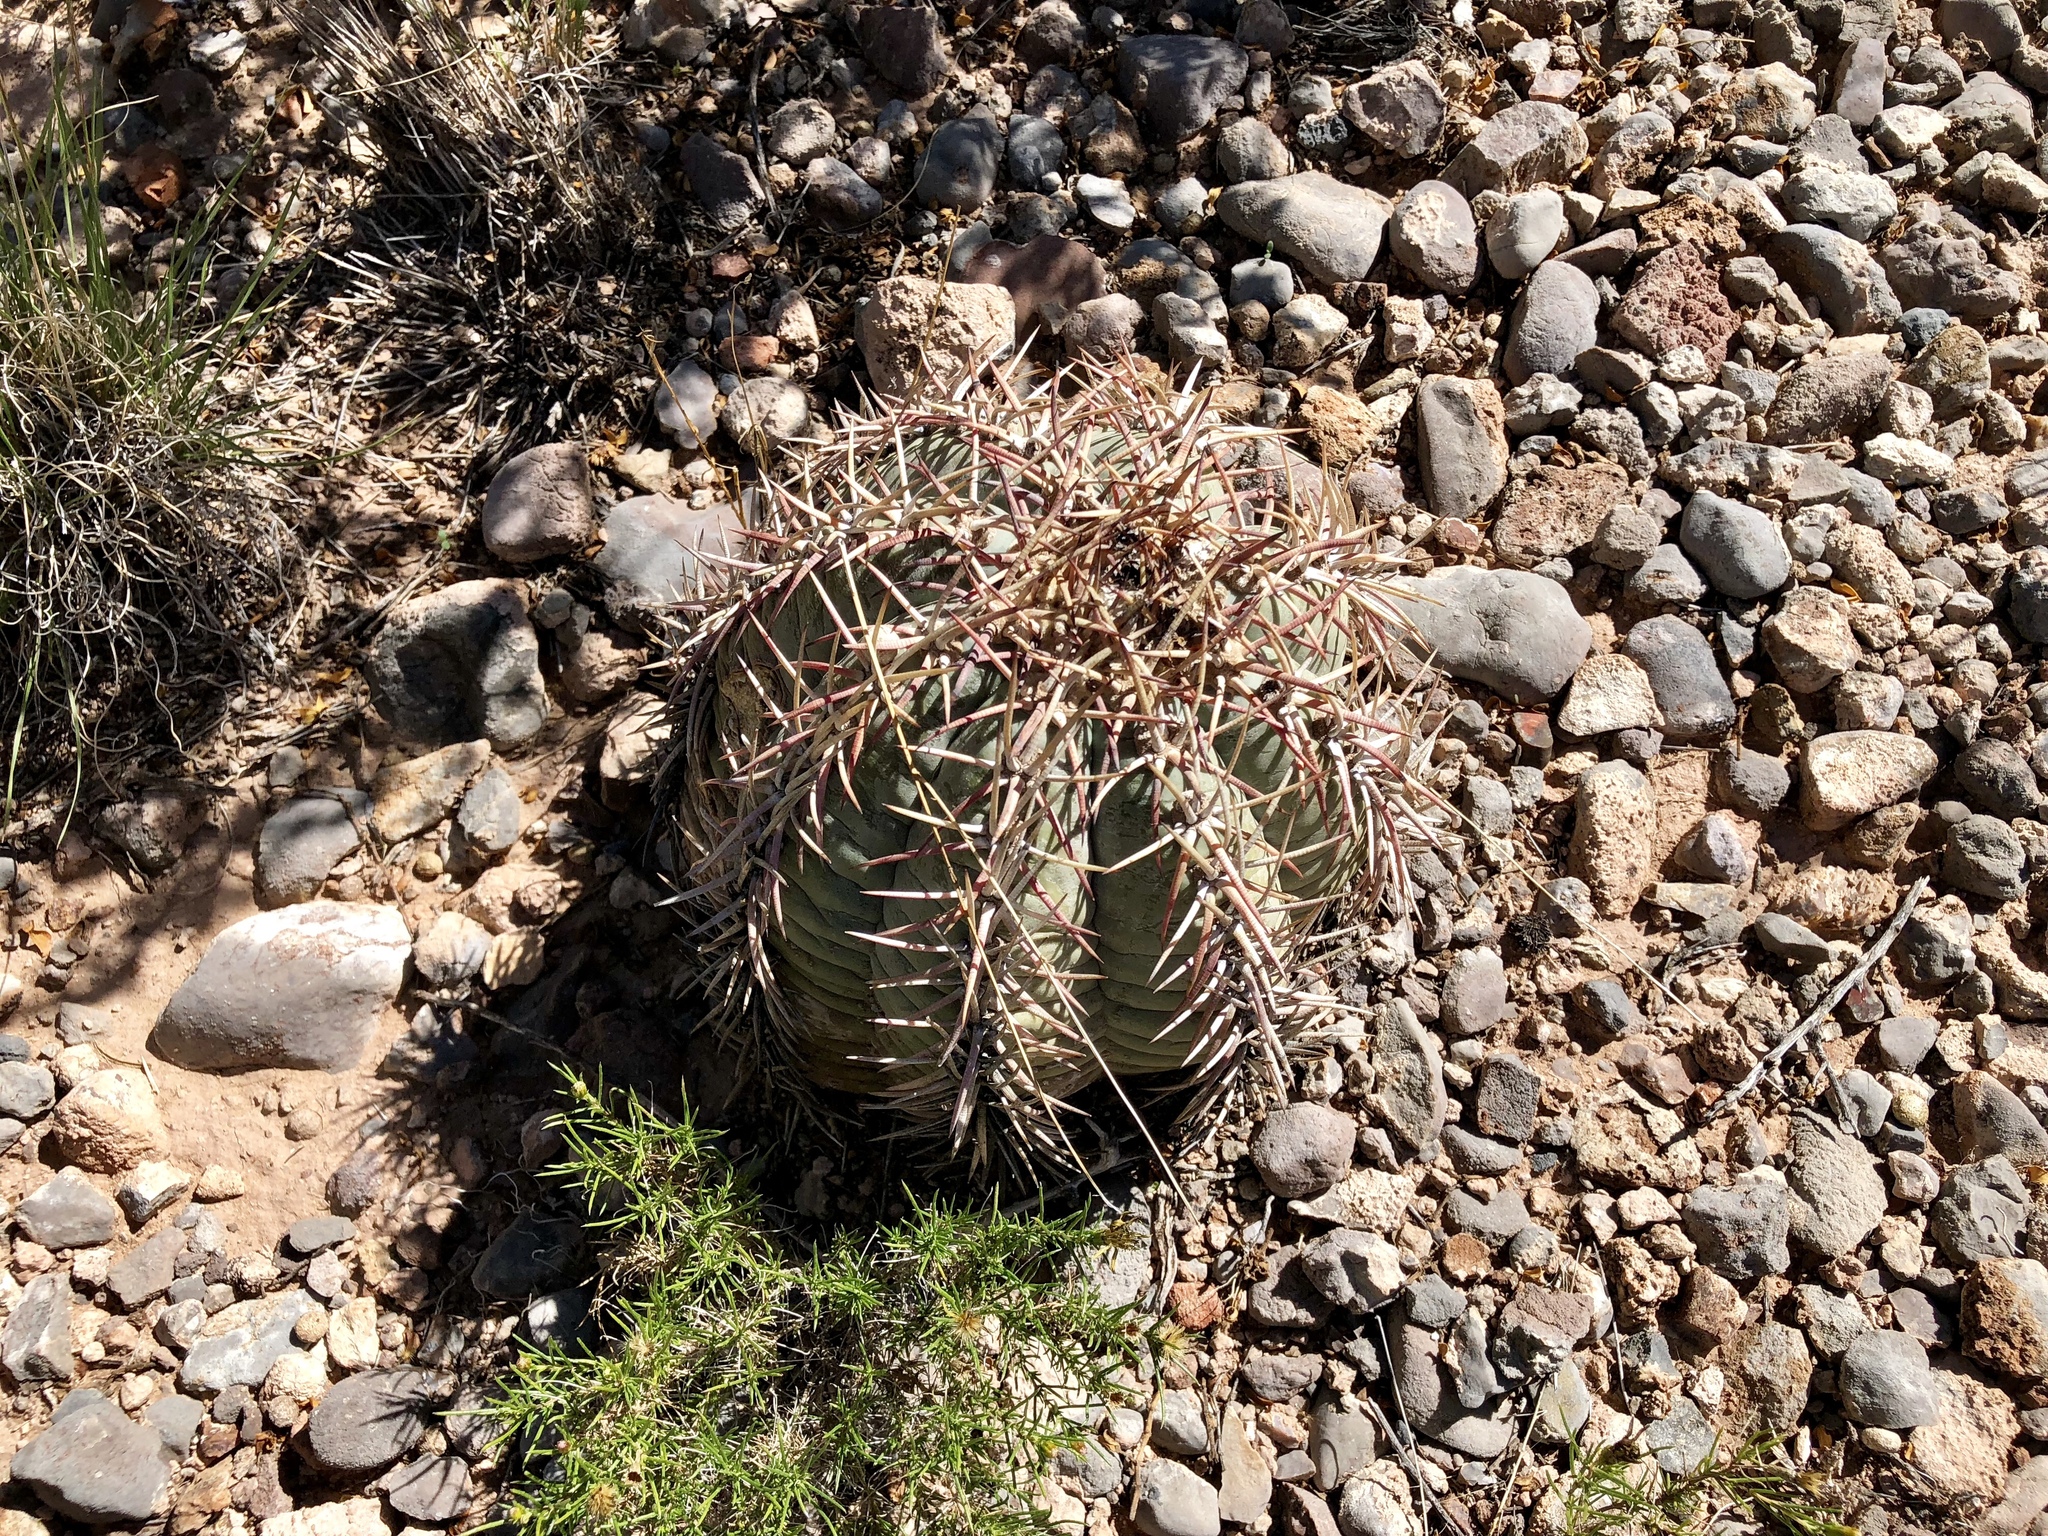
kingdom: Plantae
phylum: Tracheophyta
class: Magnoliopsida
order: Caryophyllales
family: Cactaceae
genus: Echinocactus
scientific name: Echinocactus horizonthalonius
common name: Devilshead
